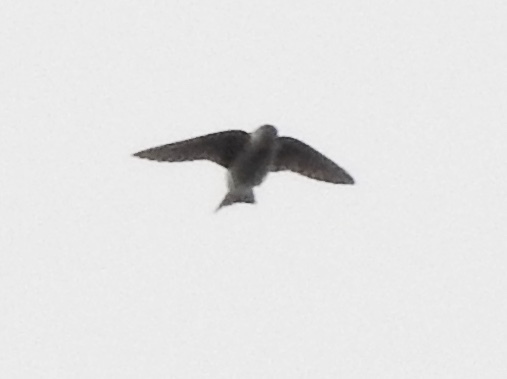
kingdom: Animalia
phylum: Chordata
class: Aves
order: Passeriformes
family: Hirundinidae
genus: Petrochelidon
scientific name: Petrochelidon fulva
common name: Cave swallow
